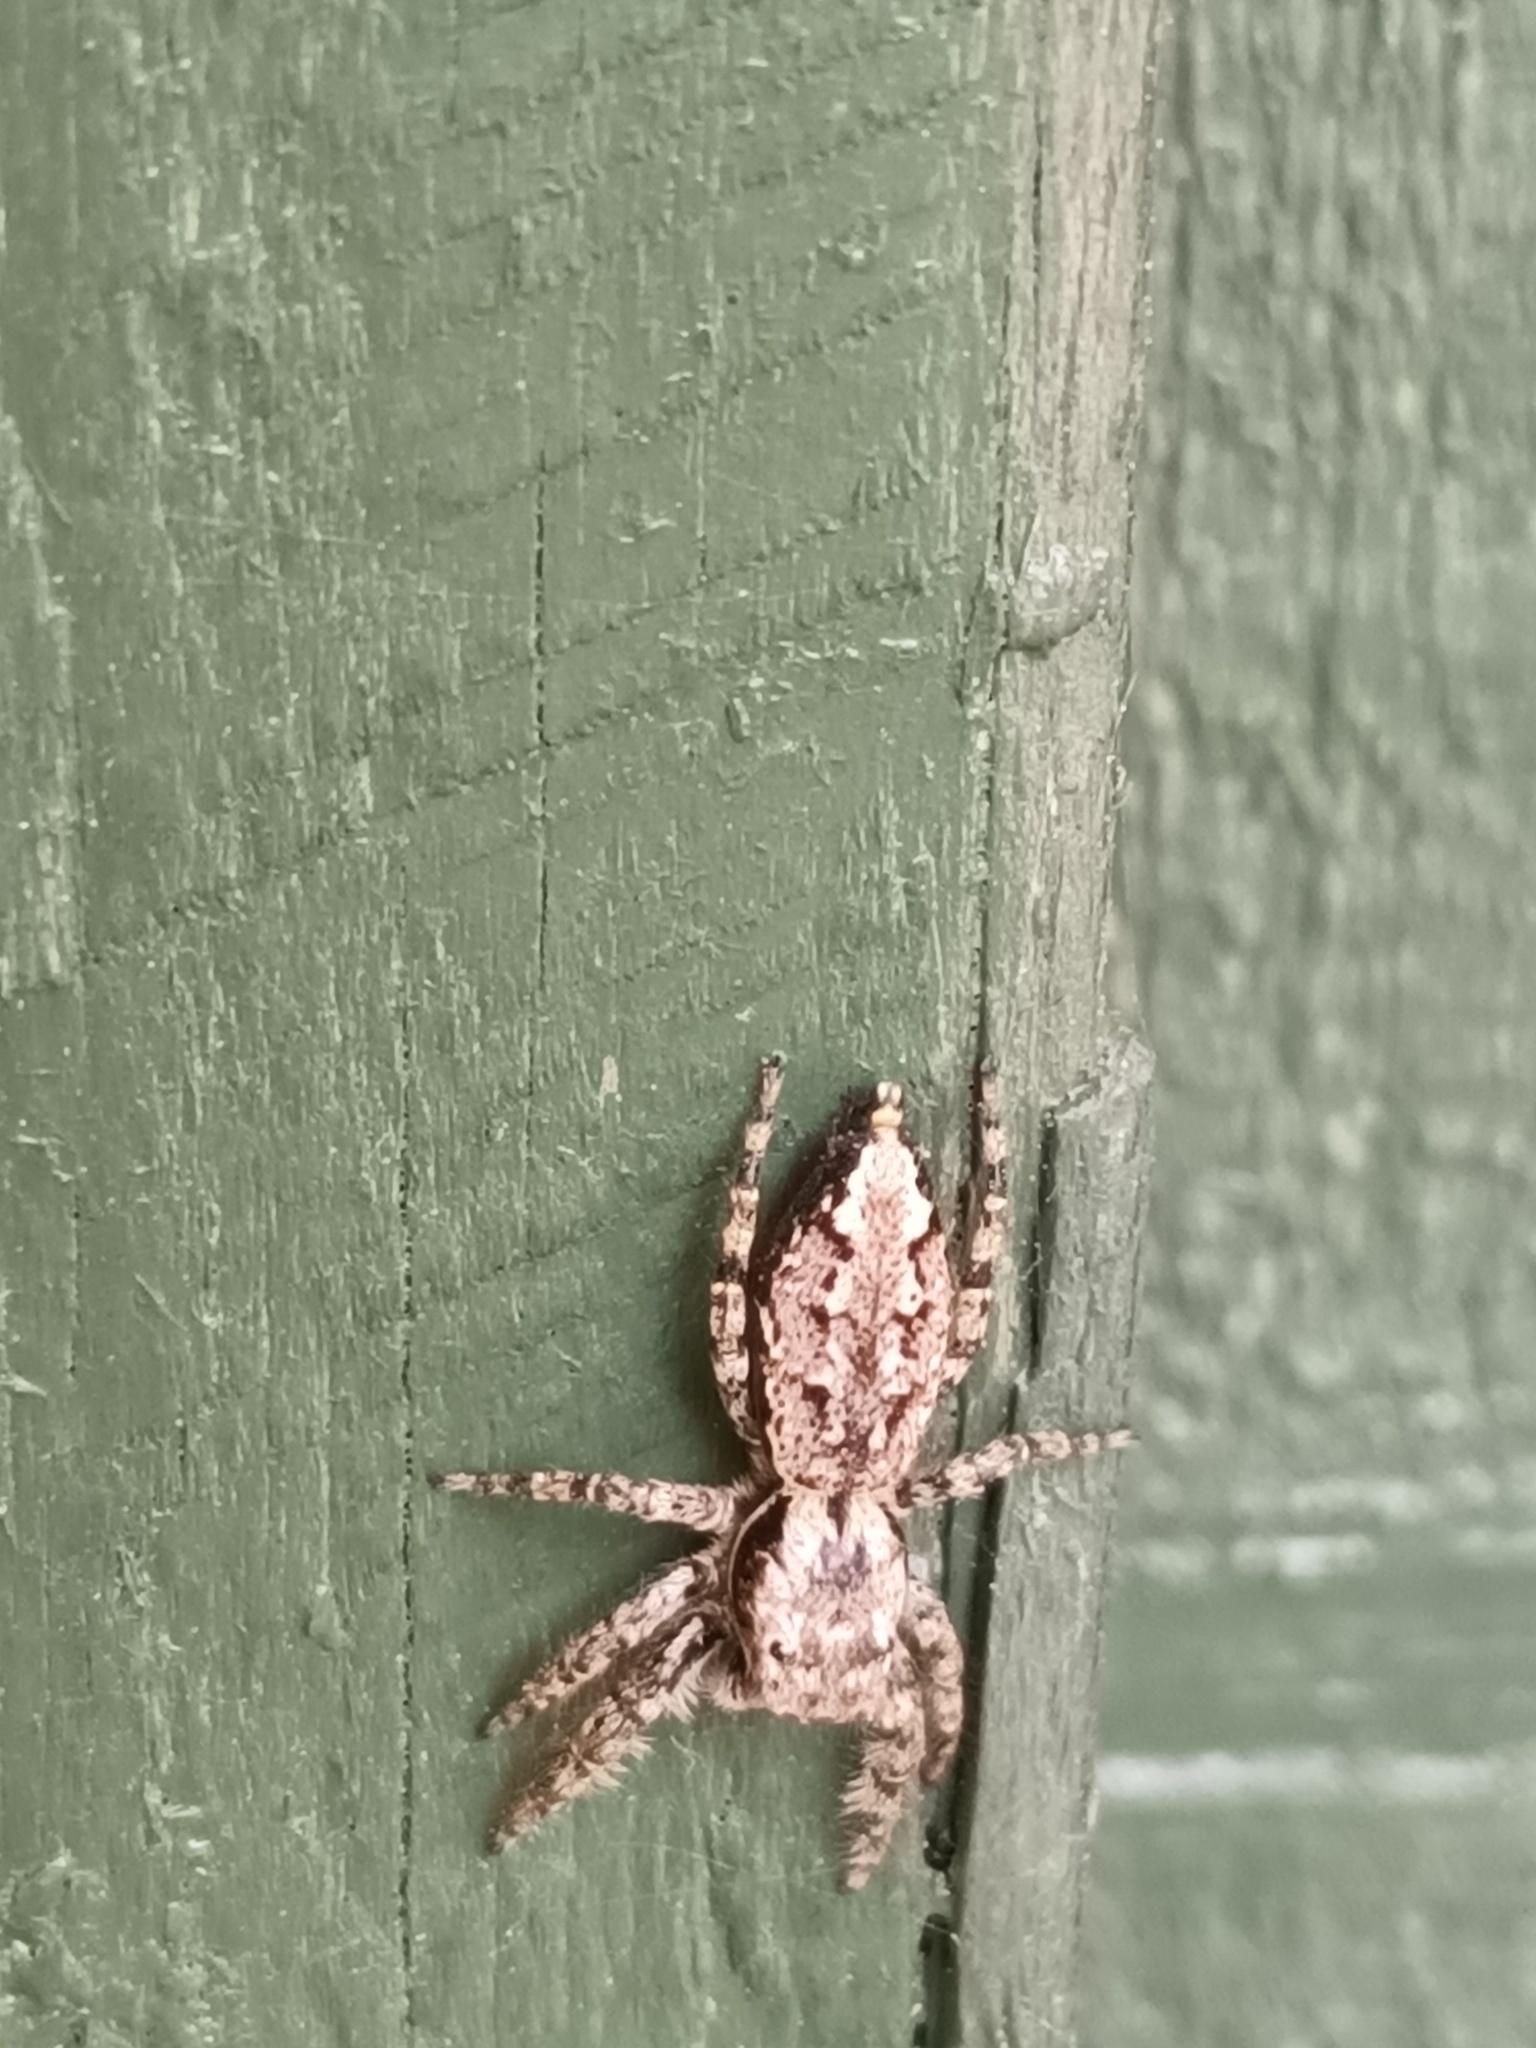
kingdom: Animalia
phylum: Arthropoda
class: Arachnida
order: Araneae
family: Salticidae
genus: Marpissa
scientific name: Marpissa muscosa
